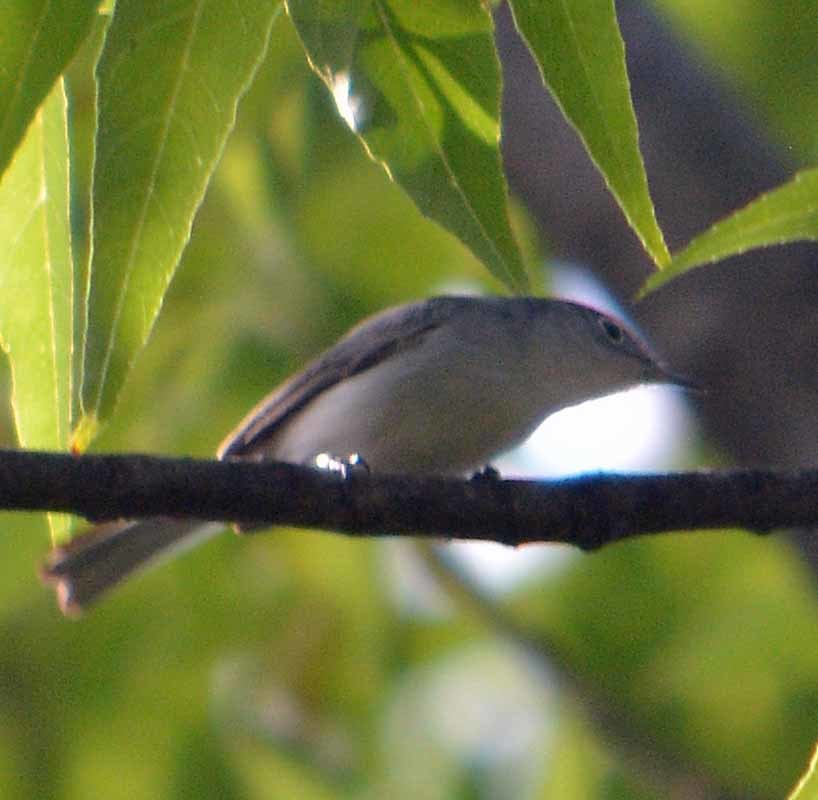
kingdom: Animalia
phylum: Chordata
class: Aves
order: Passeriformes
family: Polioptilidae
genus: Polioptila
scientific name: Polioptila caerulea
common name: Blue-gray gnatcatcher
